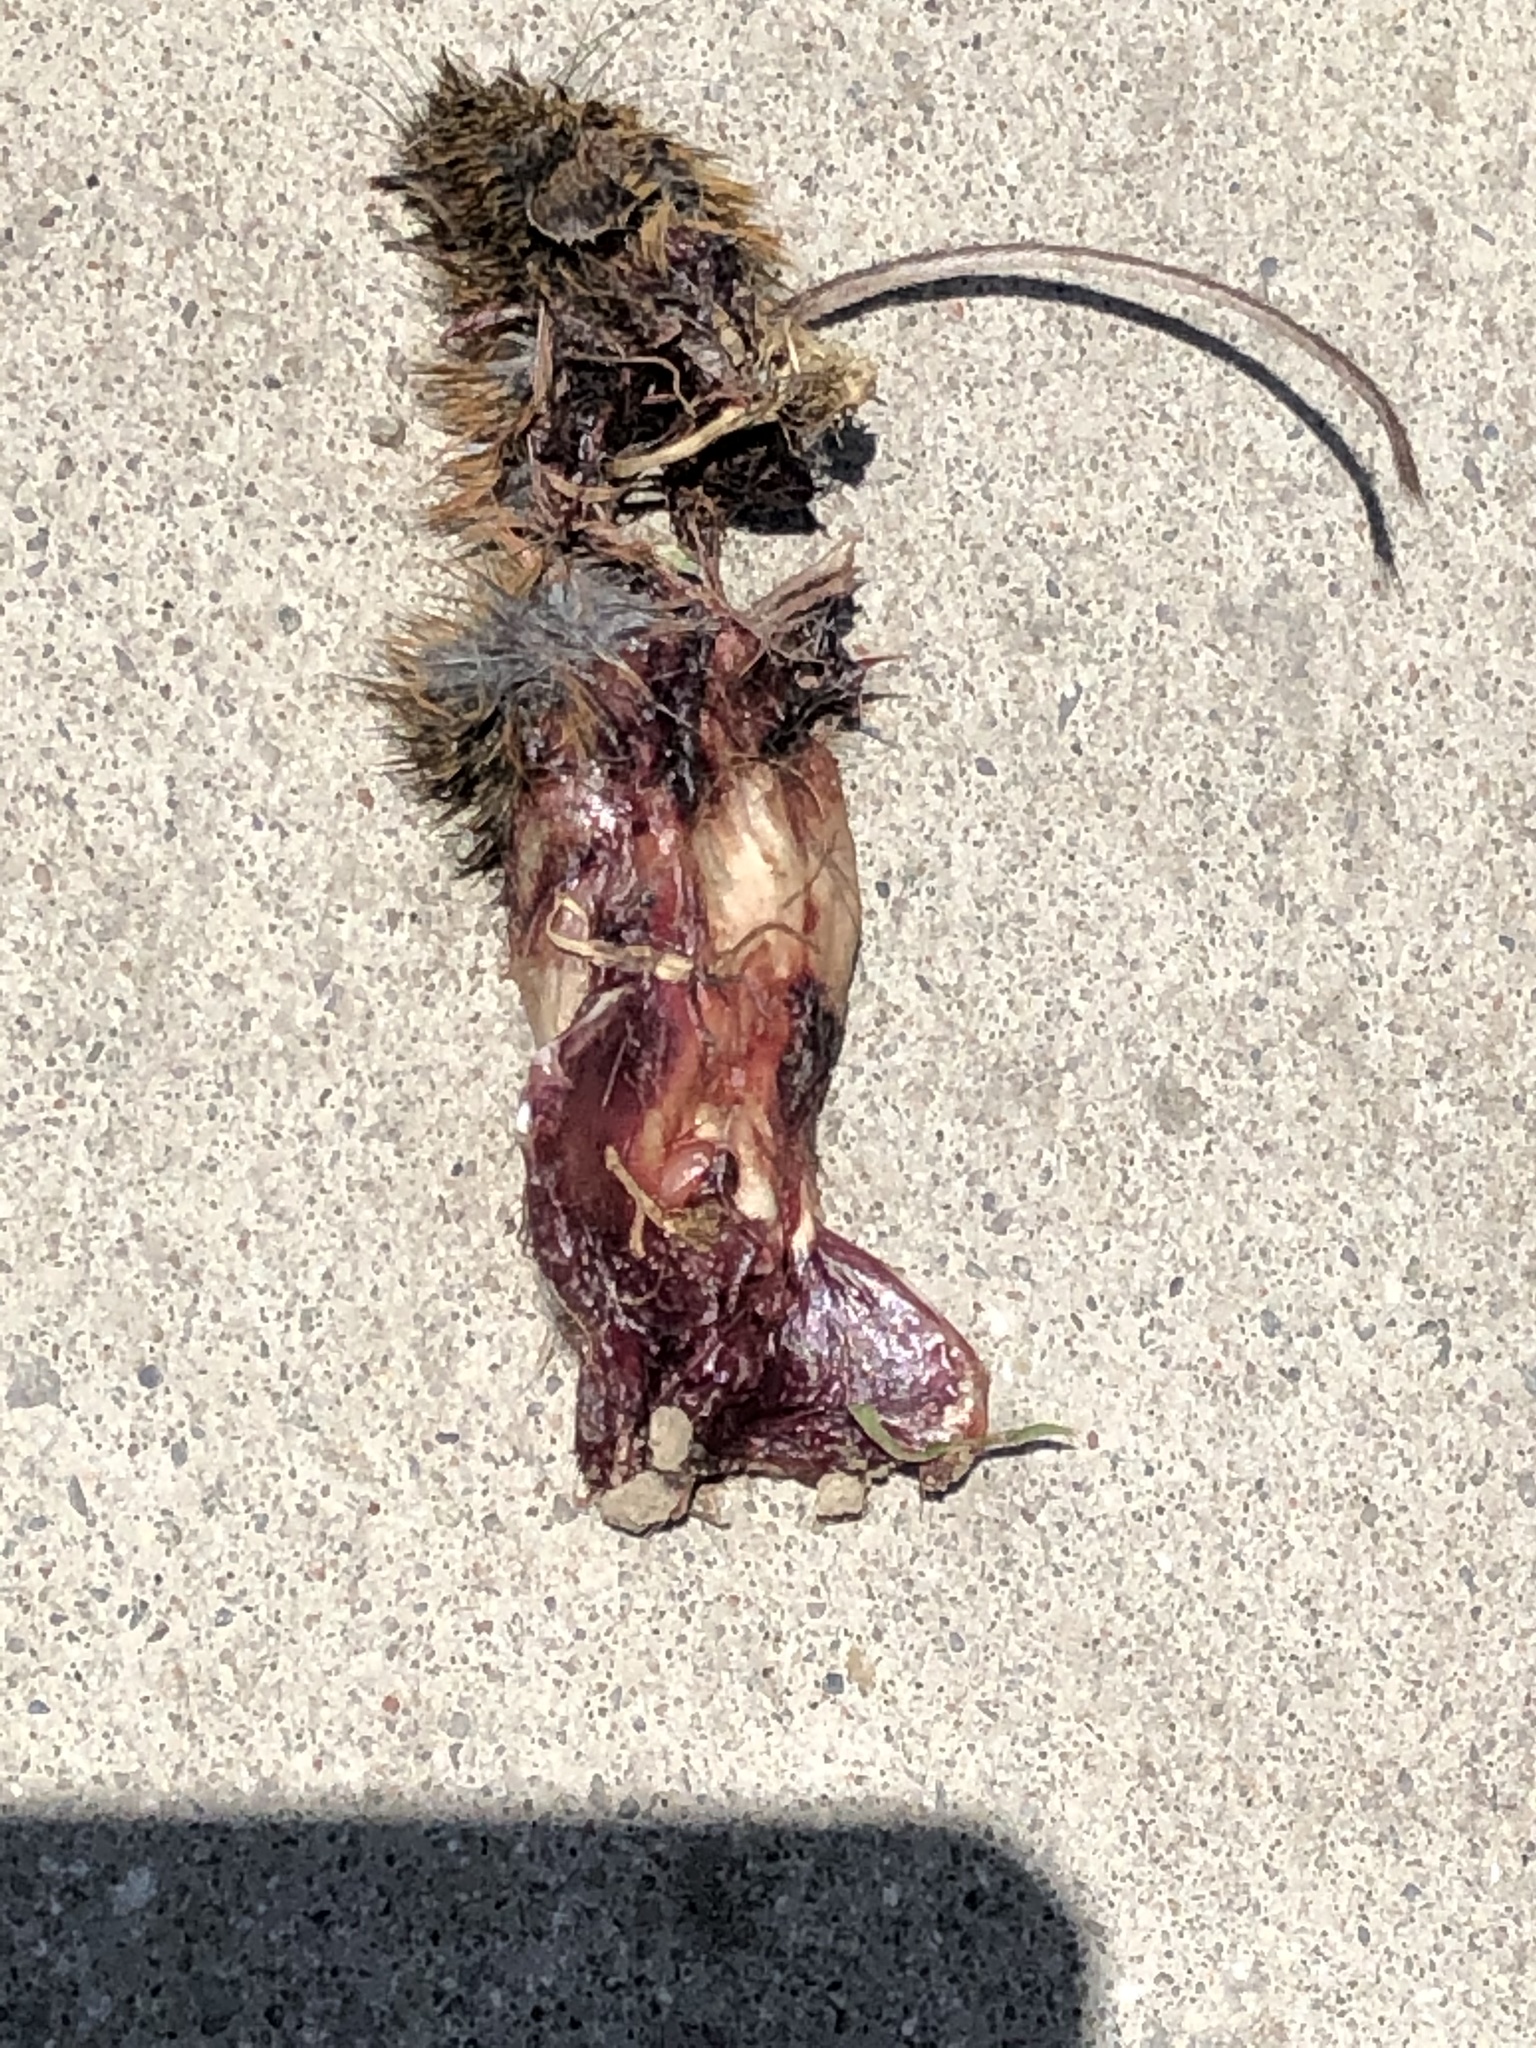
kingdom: Animalia
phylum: Chordata
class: Mammalia
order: Rodentia
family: Dipodidae
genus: Zapus
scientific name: Zapus hudsonius
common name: Meadow jumping mouse
